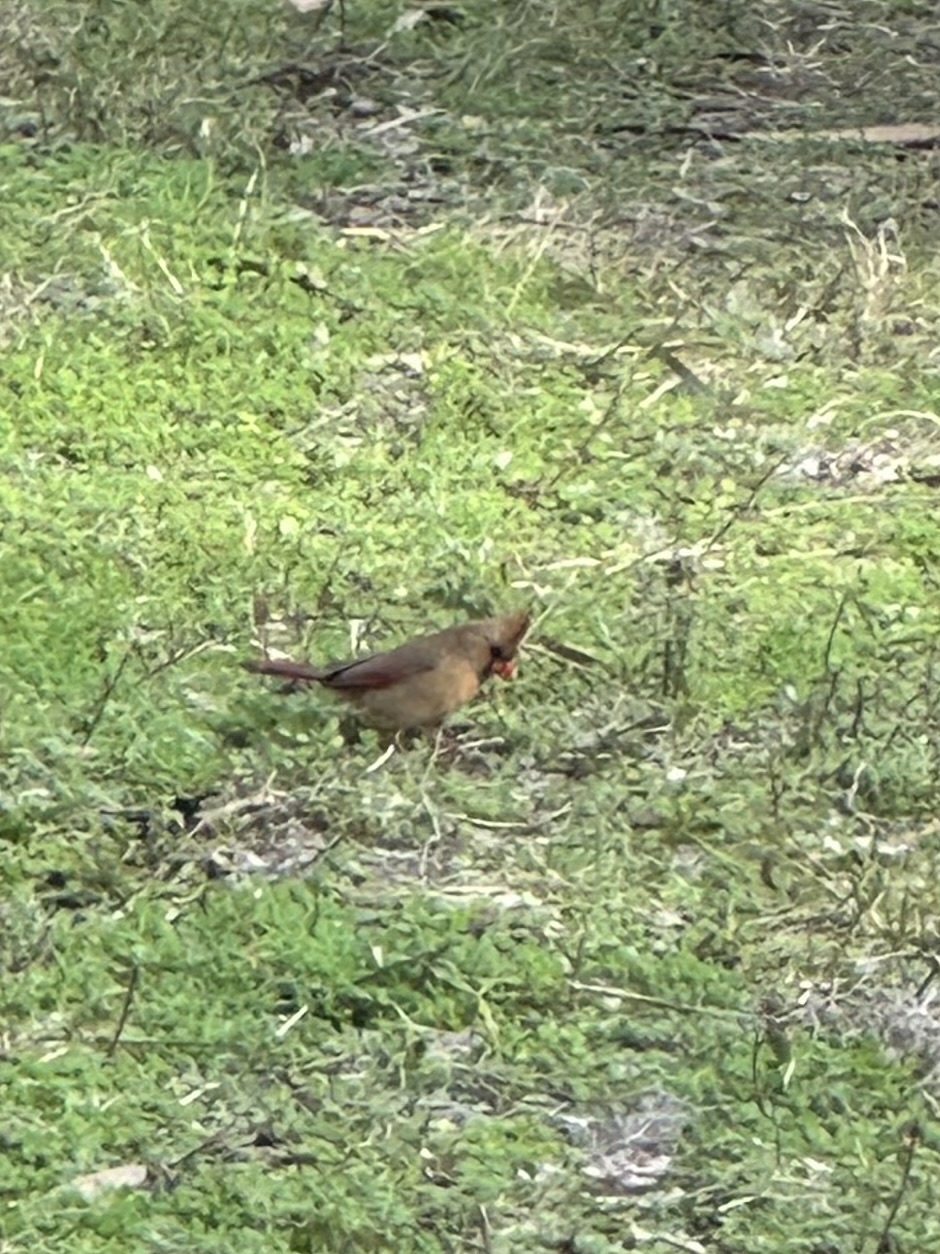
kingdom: Animalia
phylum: Chordata
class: Aves
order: Passeriformes
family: Cardinalidae
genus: Cardinalis
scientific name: Cardinalis cardinalis
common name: Northern cardinal
